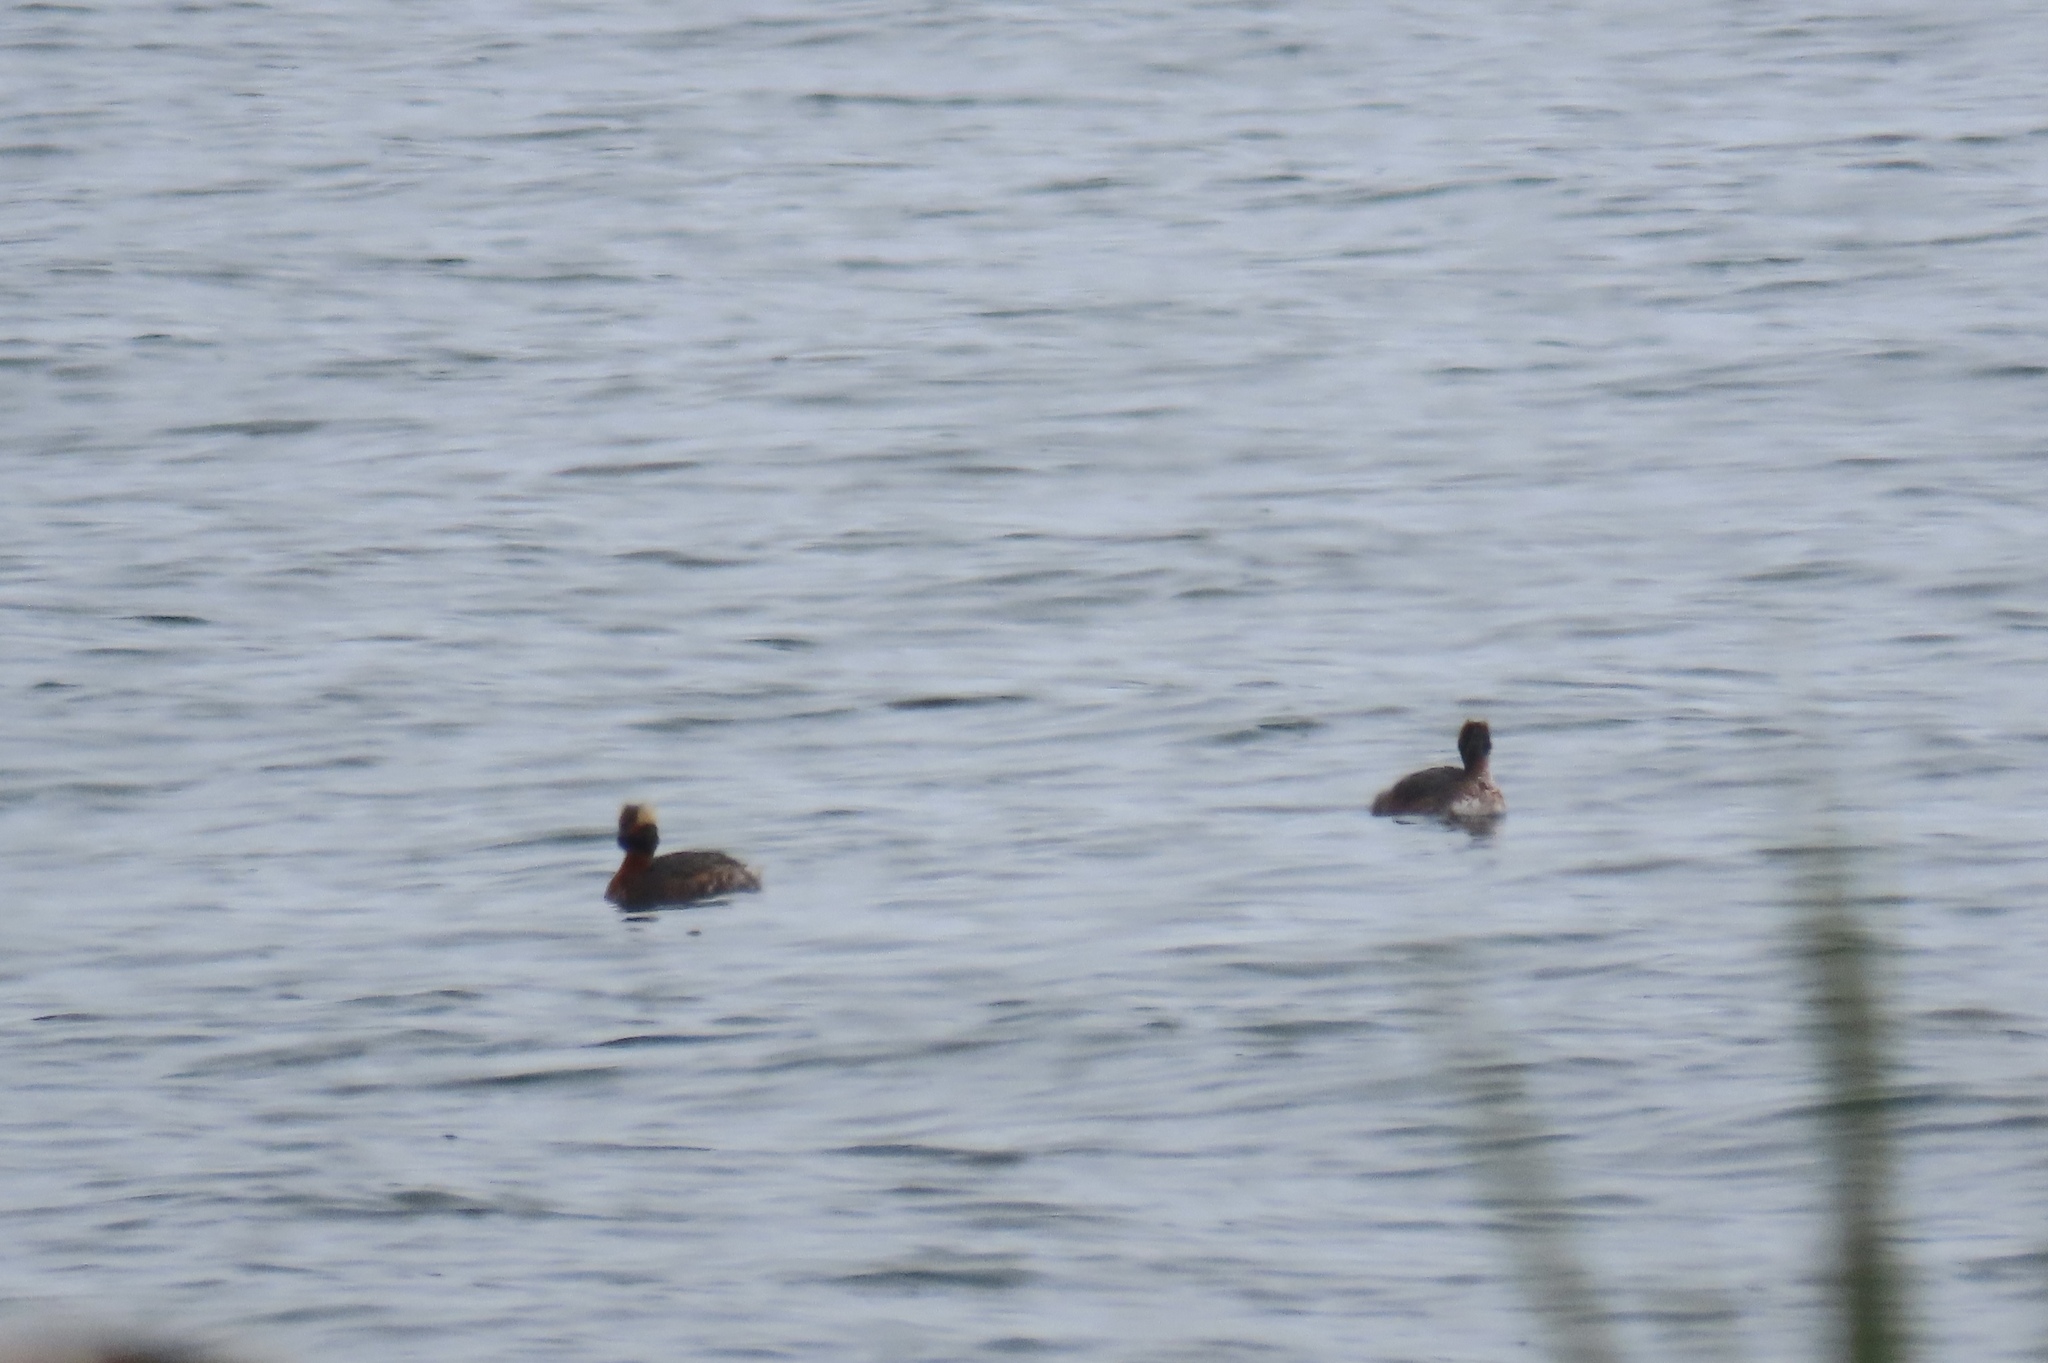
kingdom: Animalia
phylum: Chordata
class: Aves
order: Podicipediformes
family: Podicipedidae
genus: Podiceps
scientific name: Podiceps auritus
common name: Horned grebe
